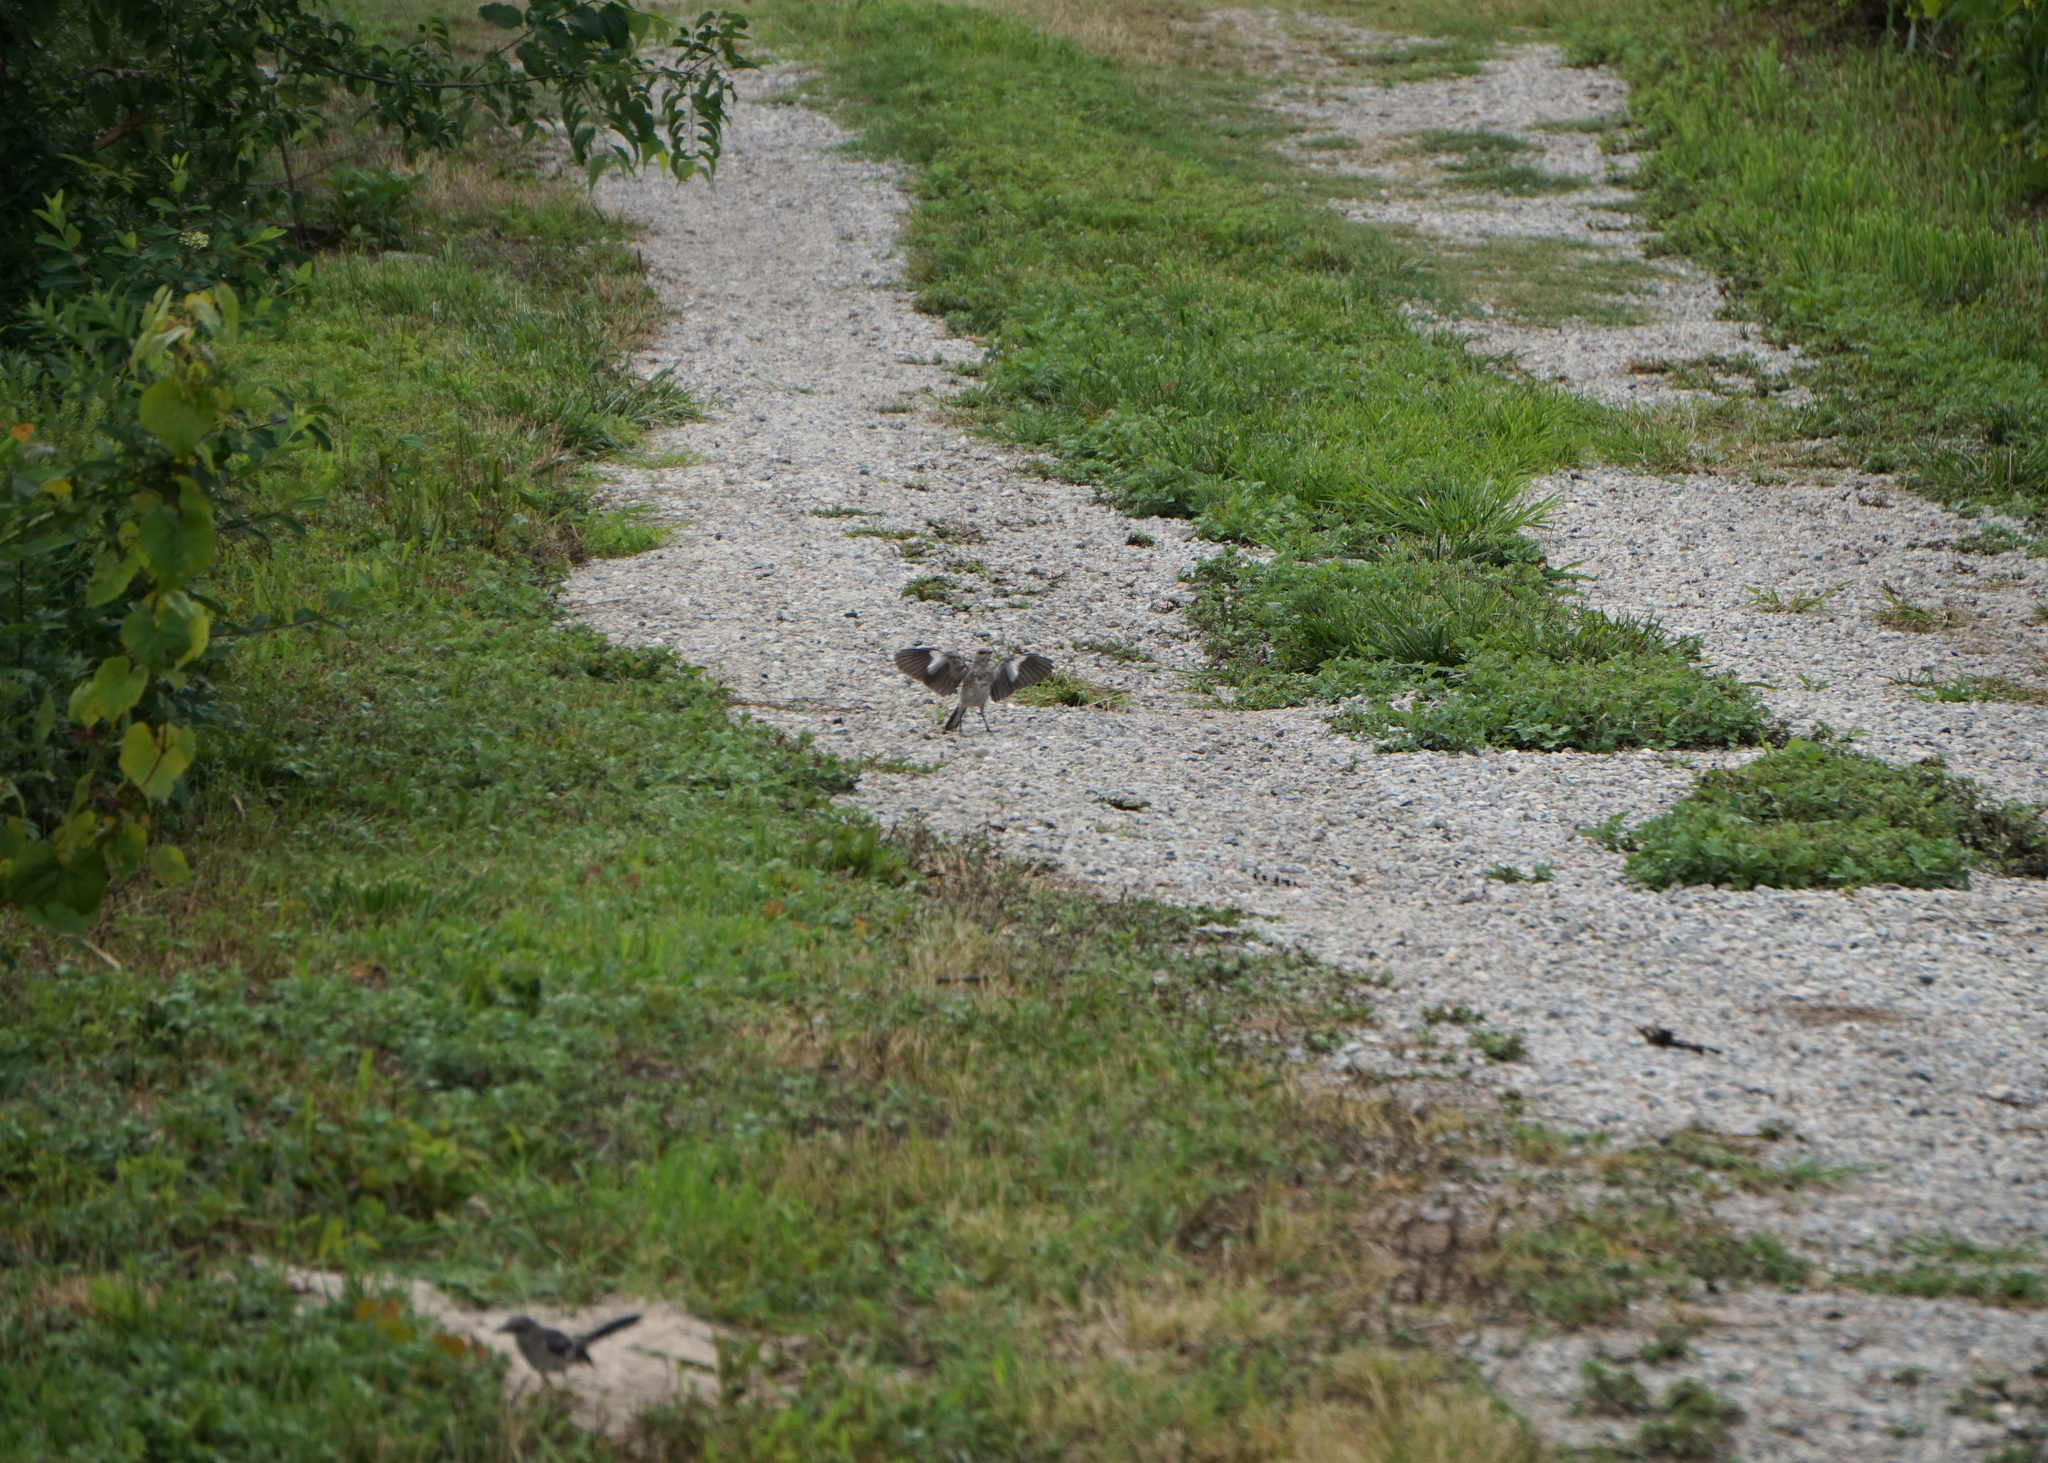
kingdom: Animalia
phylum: Chordata
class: Aves
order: Passeriformes
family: Mimidae
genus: Mimus
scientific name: Mimus polyglottos
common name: Northern mockingbird
